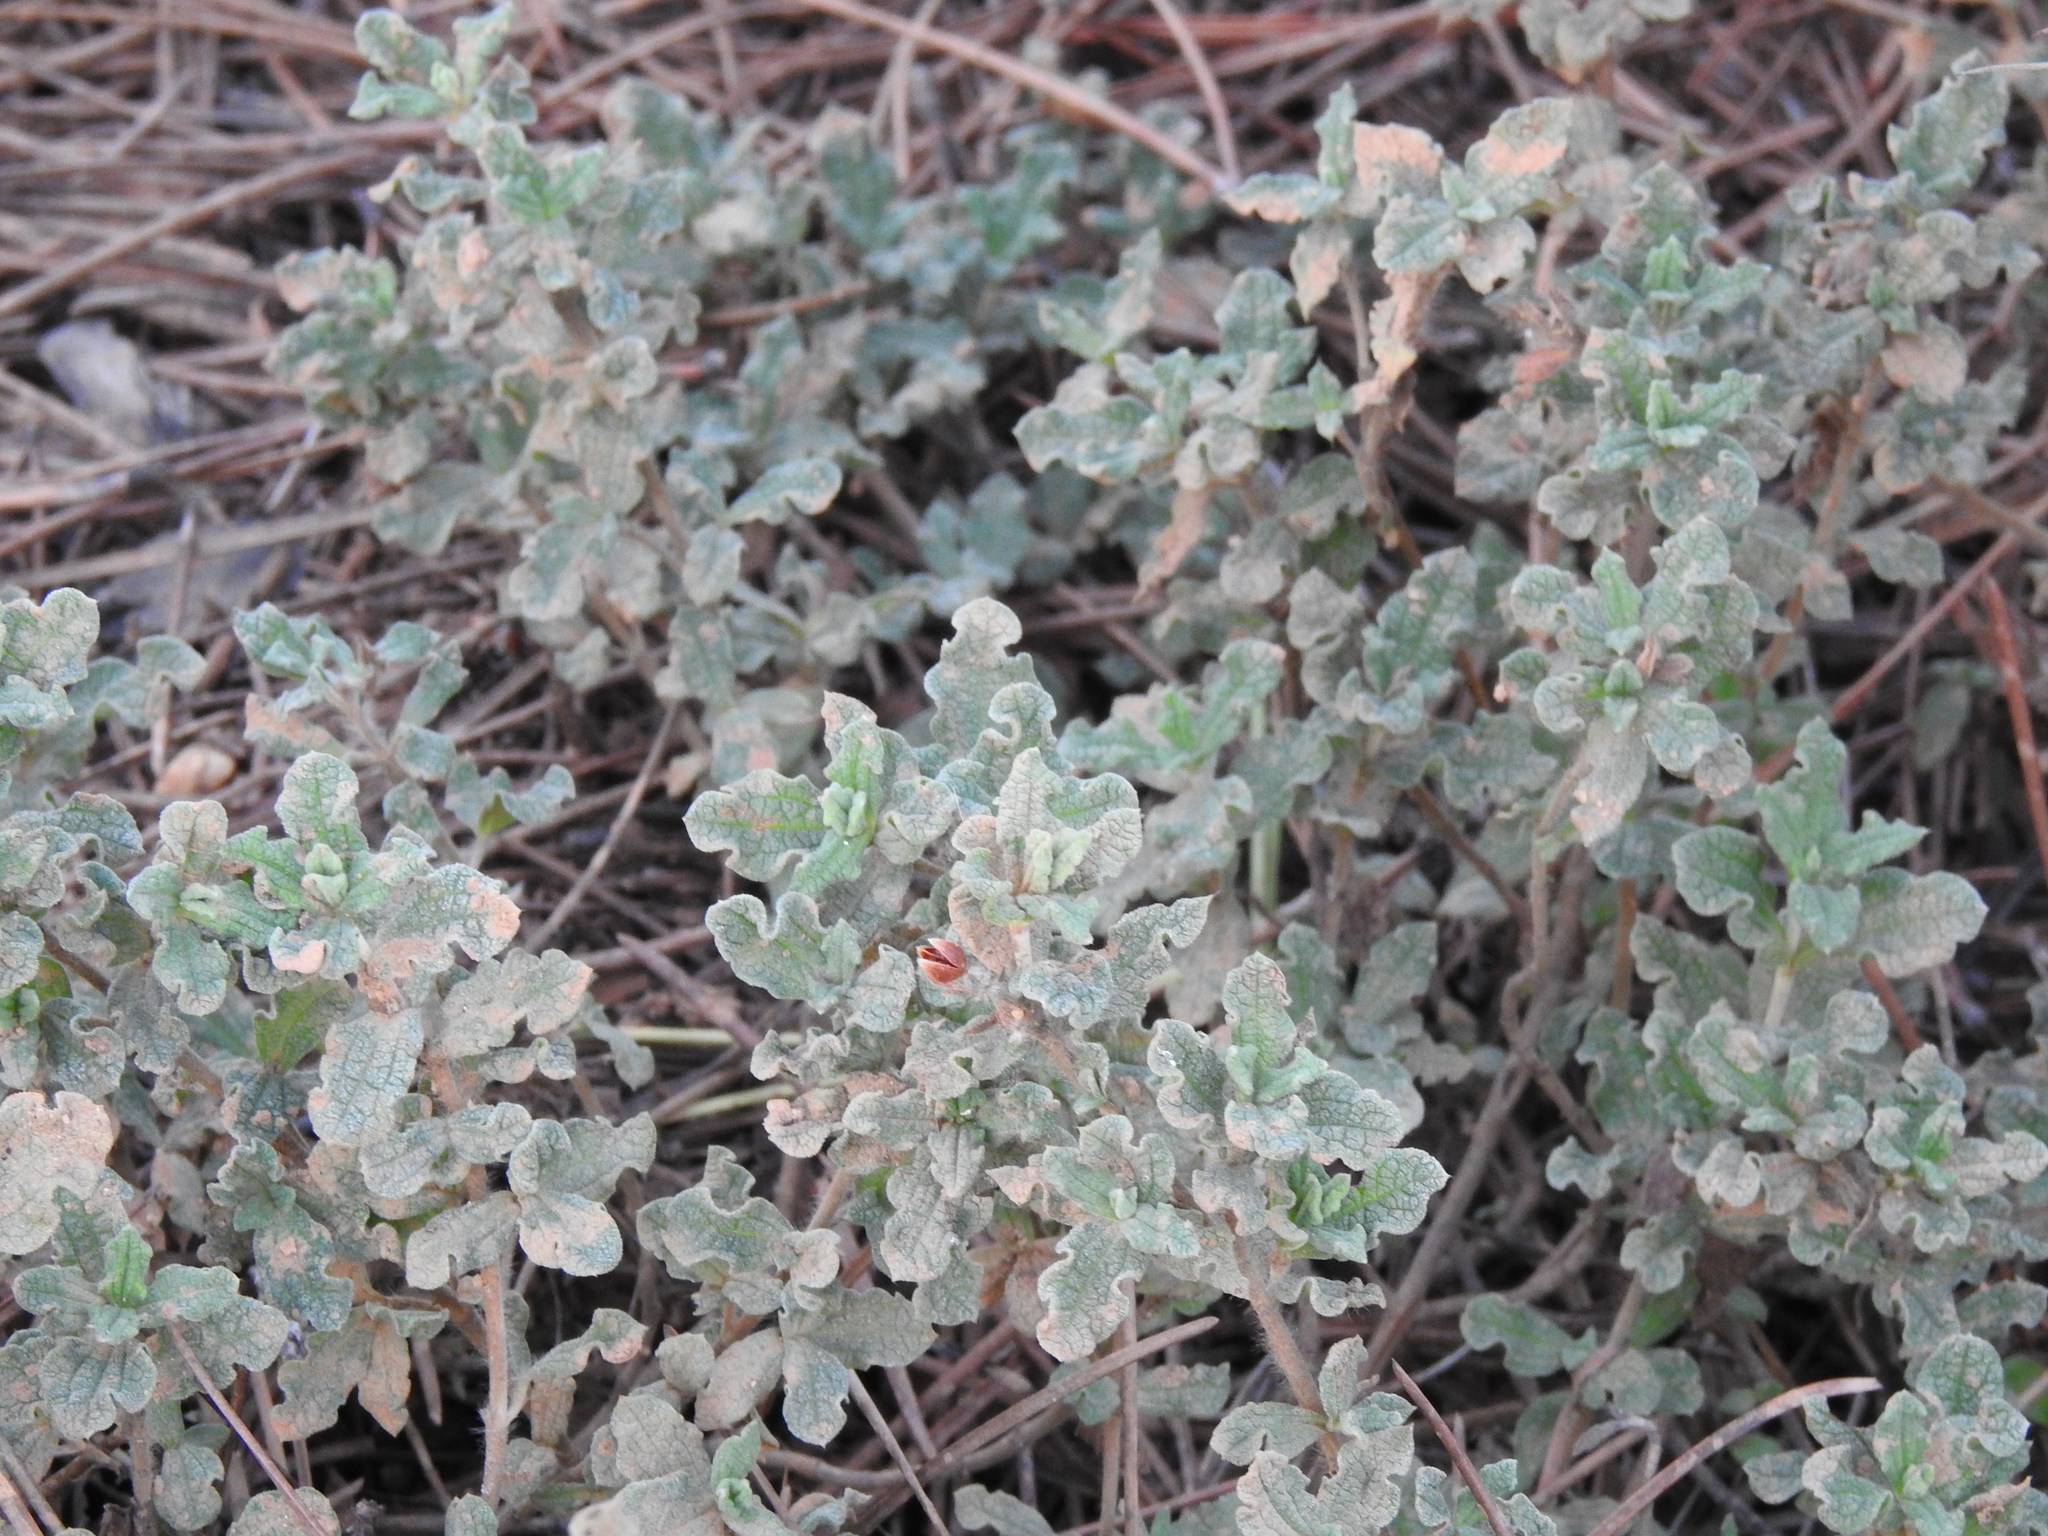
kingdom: Plantae
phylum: Tracheophyta
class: Magnoliopsida
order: Malvales
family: Cistaceae
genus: Cistus
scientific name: Cistus crispus
